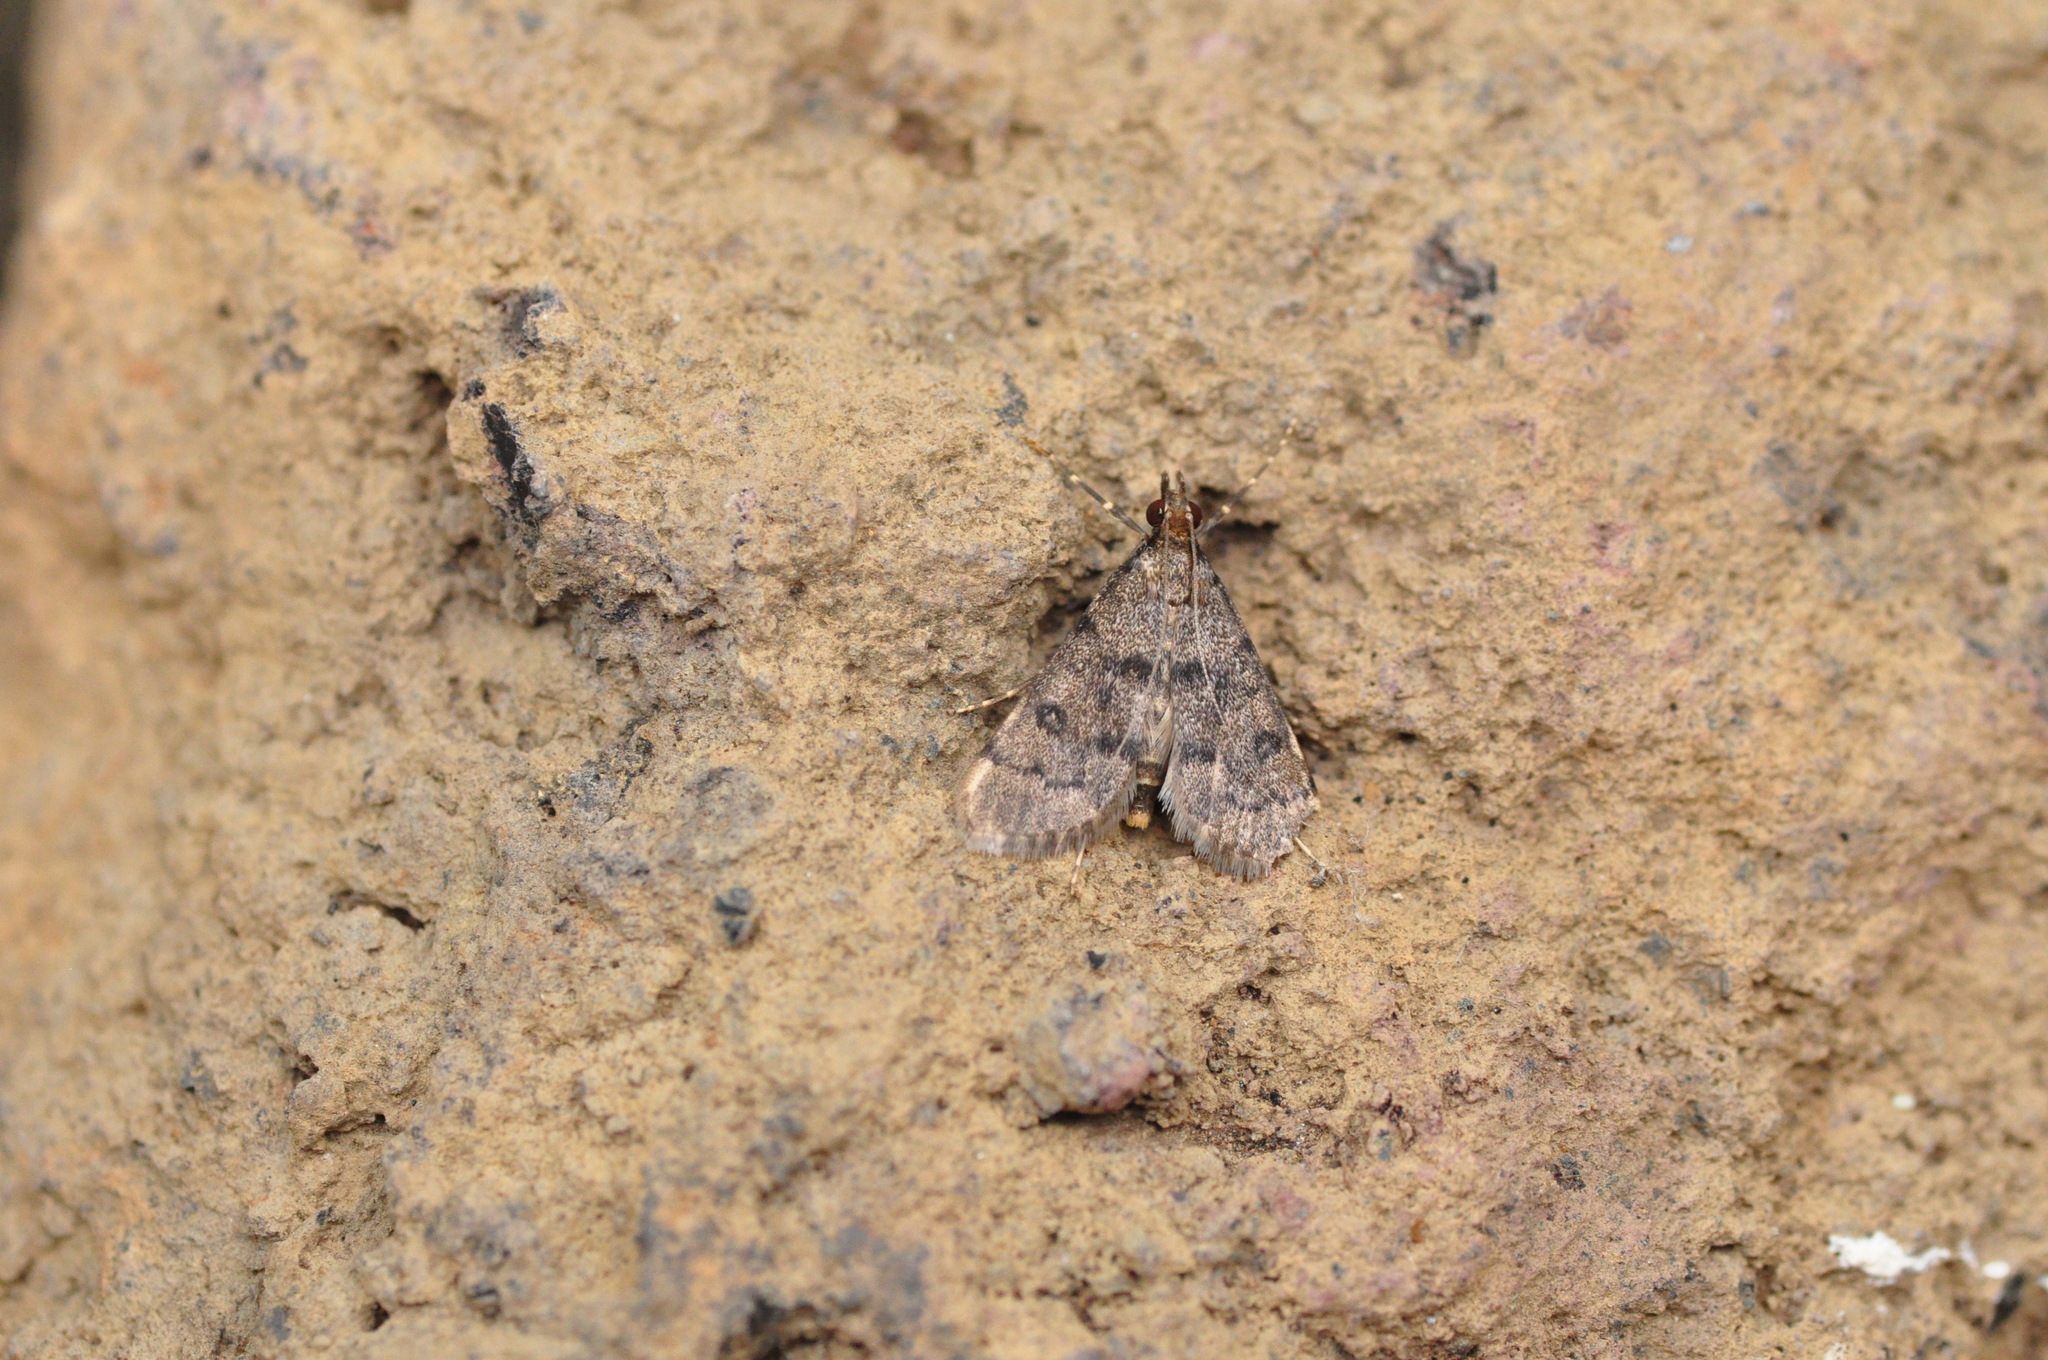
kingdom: Animalia
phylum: Arthropoda
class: Insecta
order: Lepidoptera
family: Crambidae
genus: Stenia
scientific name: Stenia daralis
